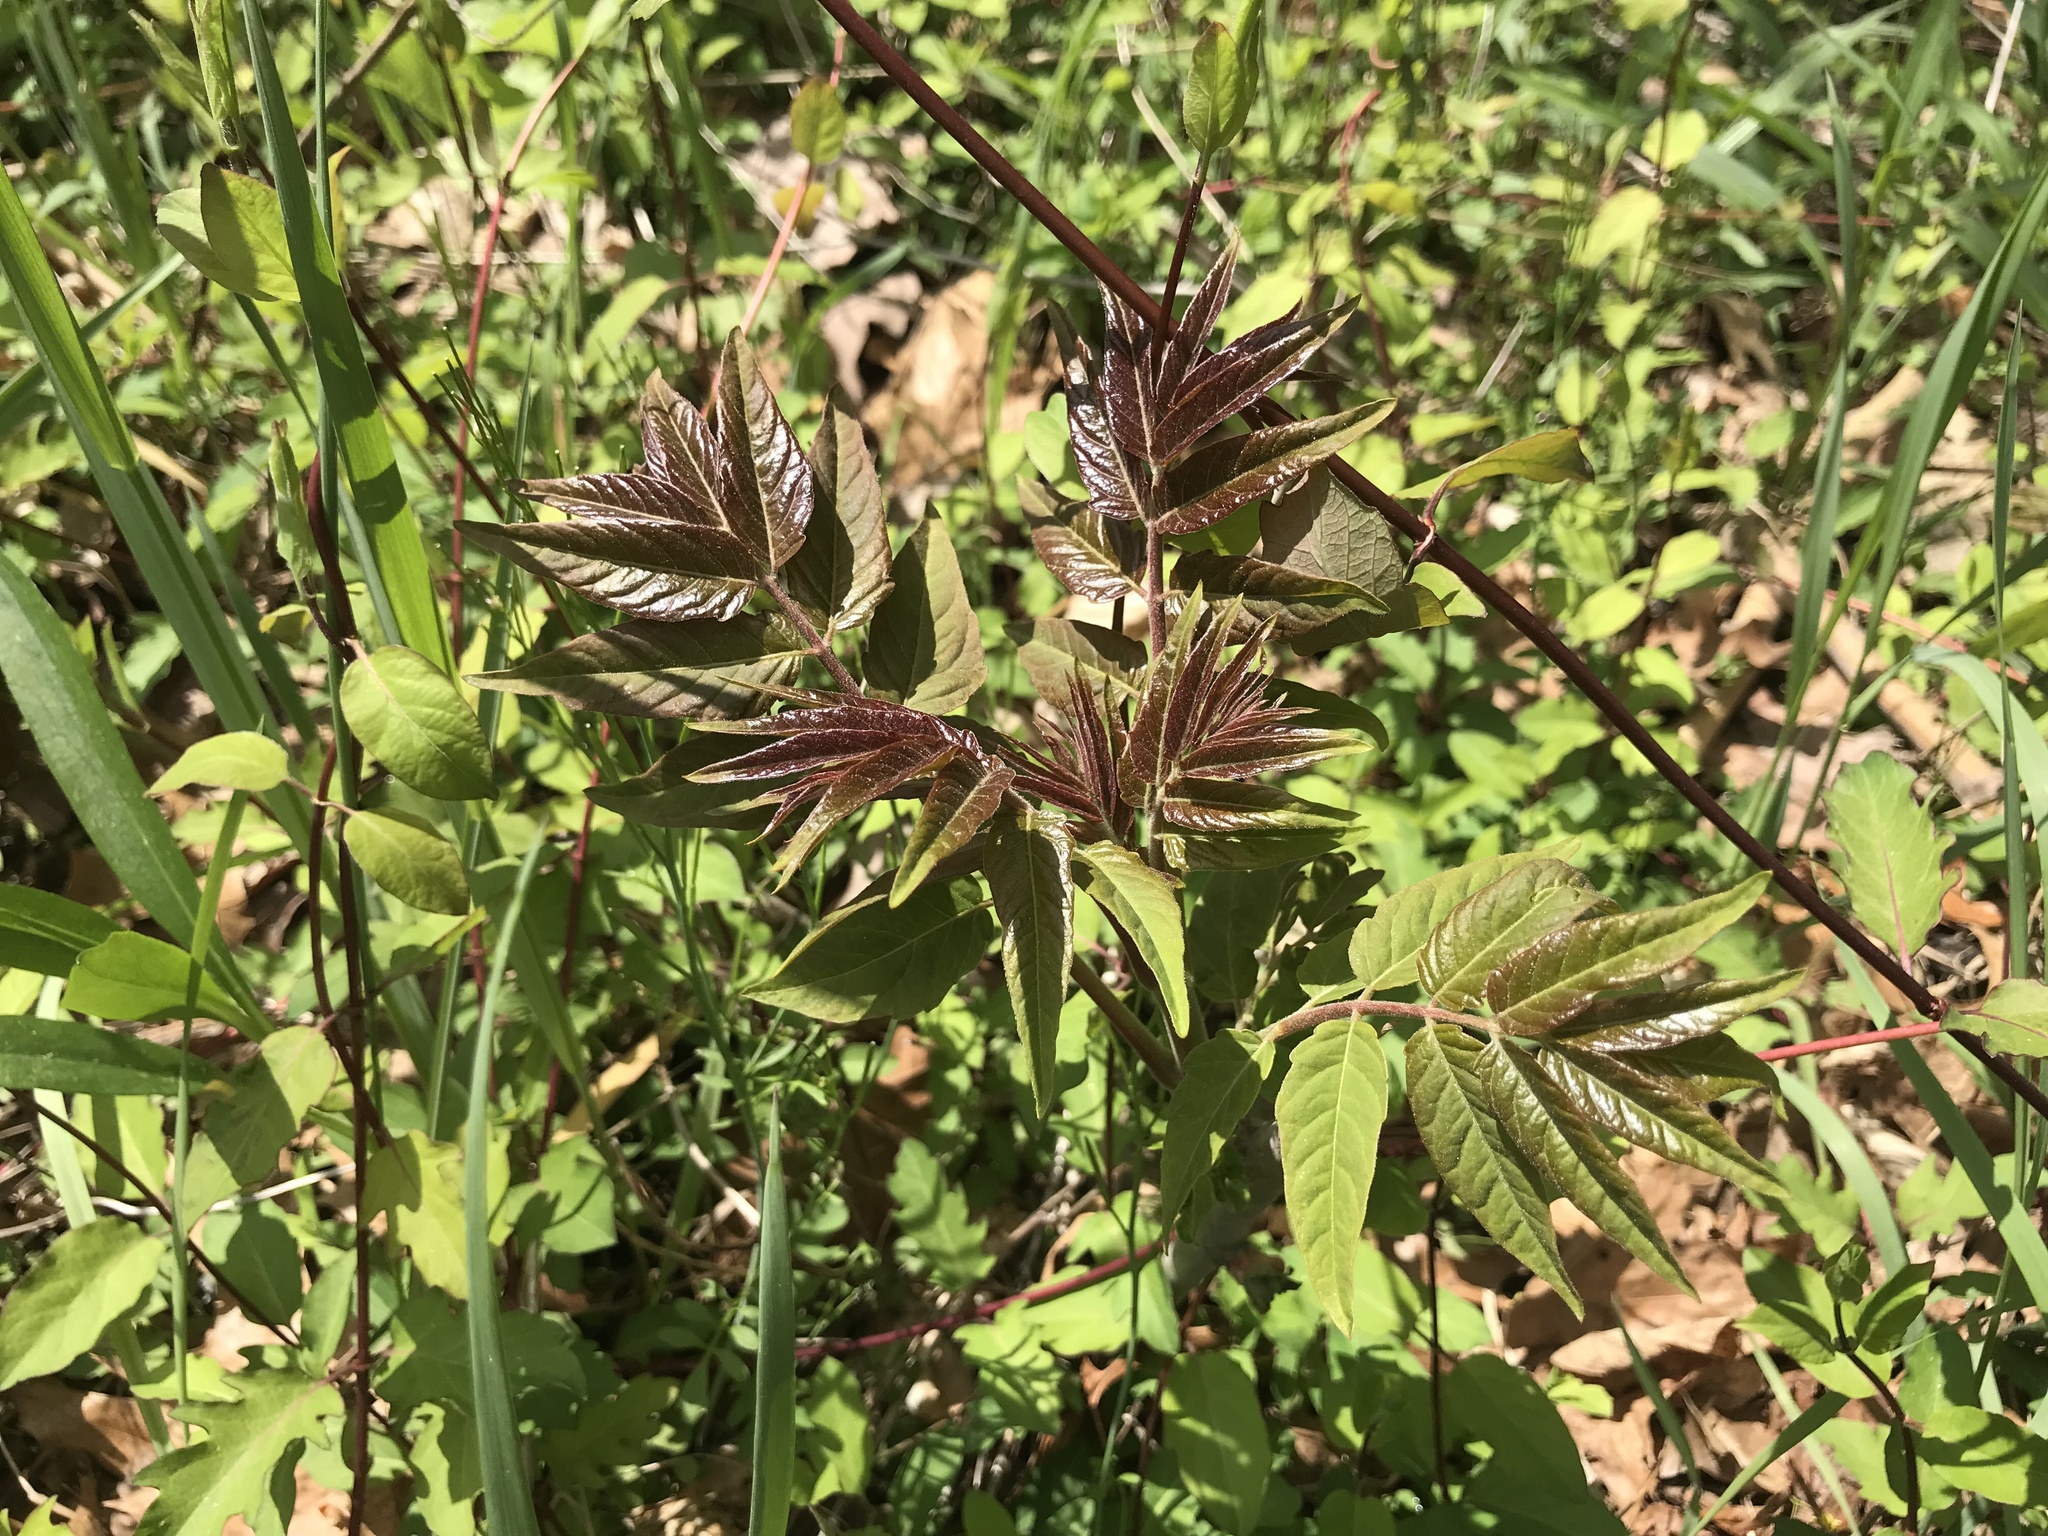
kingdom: Plantae
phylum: Tracheophyta
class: Magnoliopsida
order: Sapindales
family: Simaroubaceae
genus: Ailanthus
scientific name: Ailanthus altissima
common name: Tree-of-heaven
